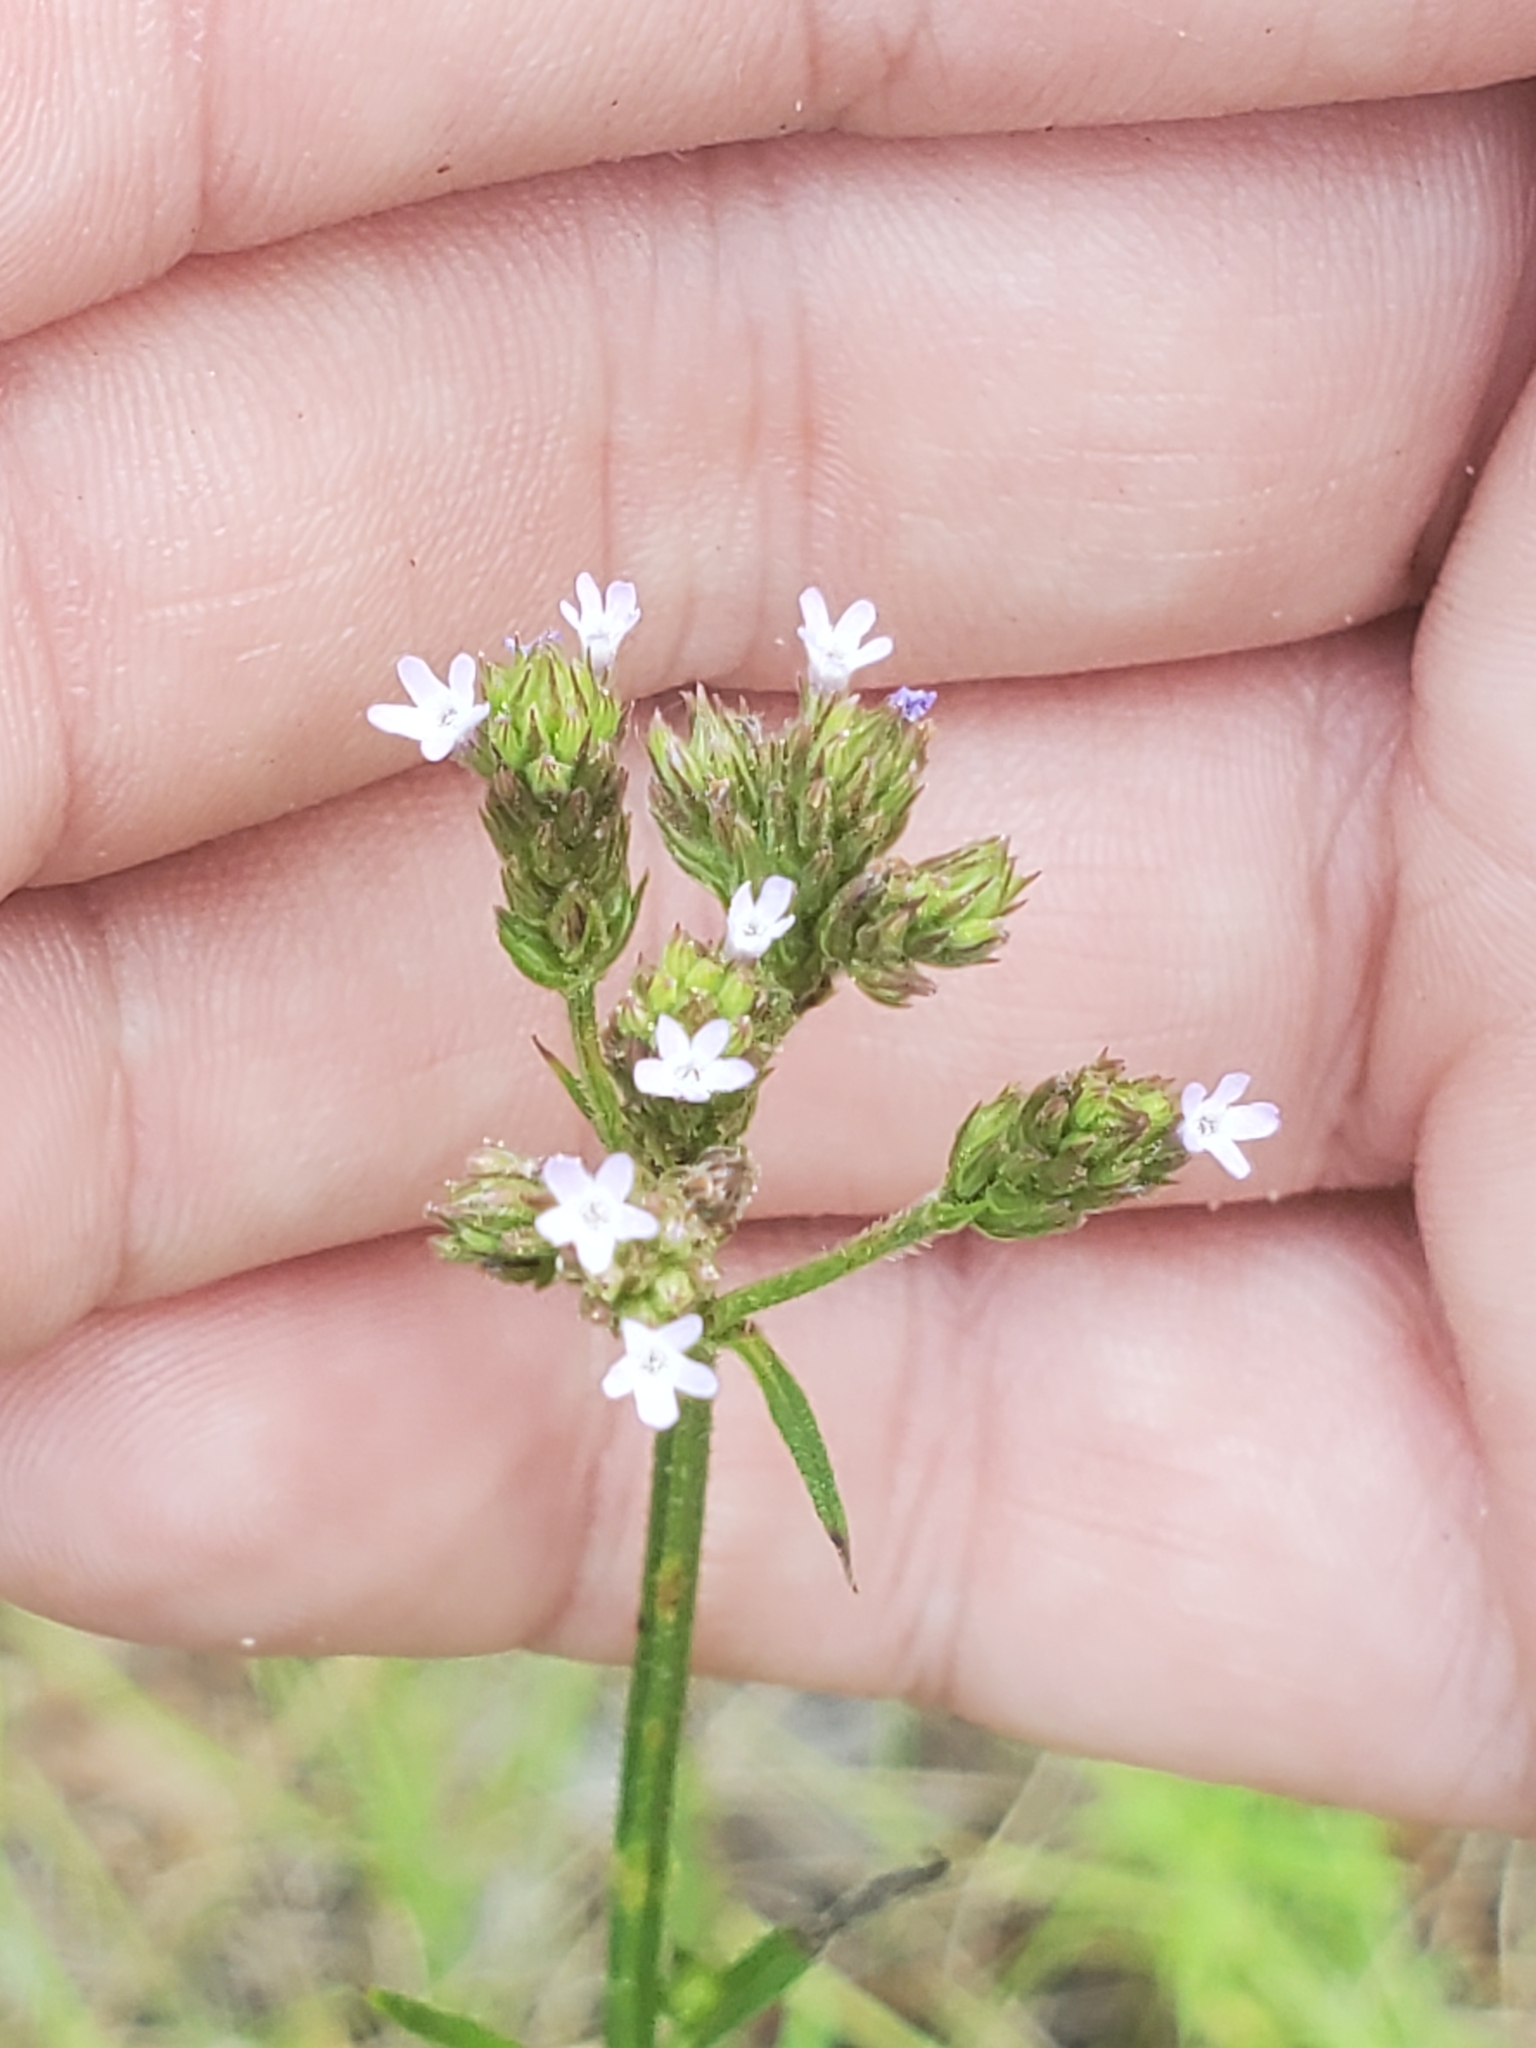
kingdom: Plantae
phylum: Tracheophyta
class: Magnoliopsida
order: Lamiales
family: Verbenaceae
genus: Verbena
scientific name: Verbena brasiliensis
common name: Brazilian vervain
